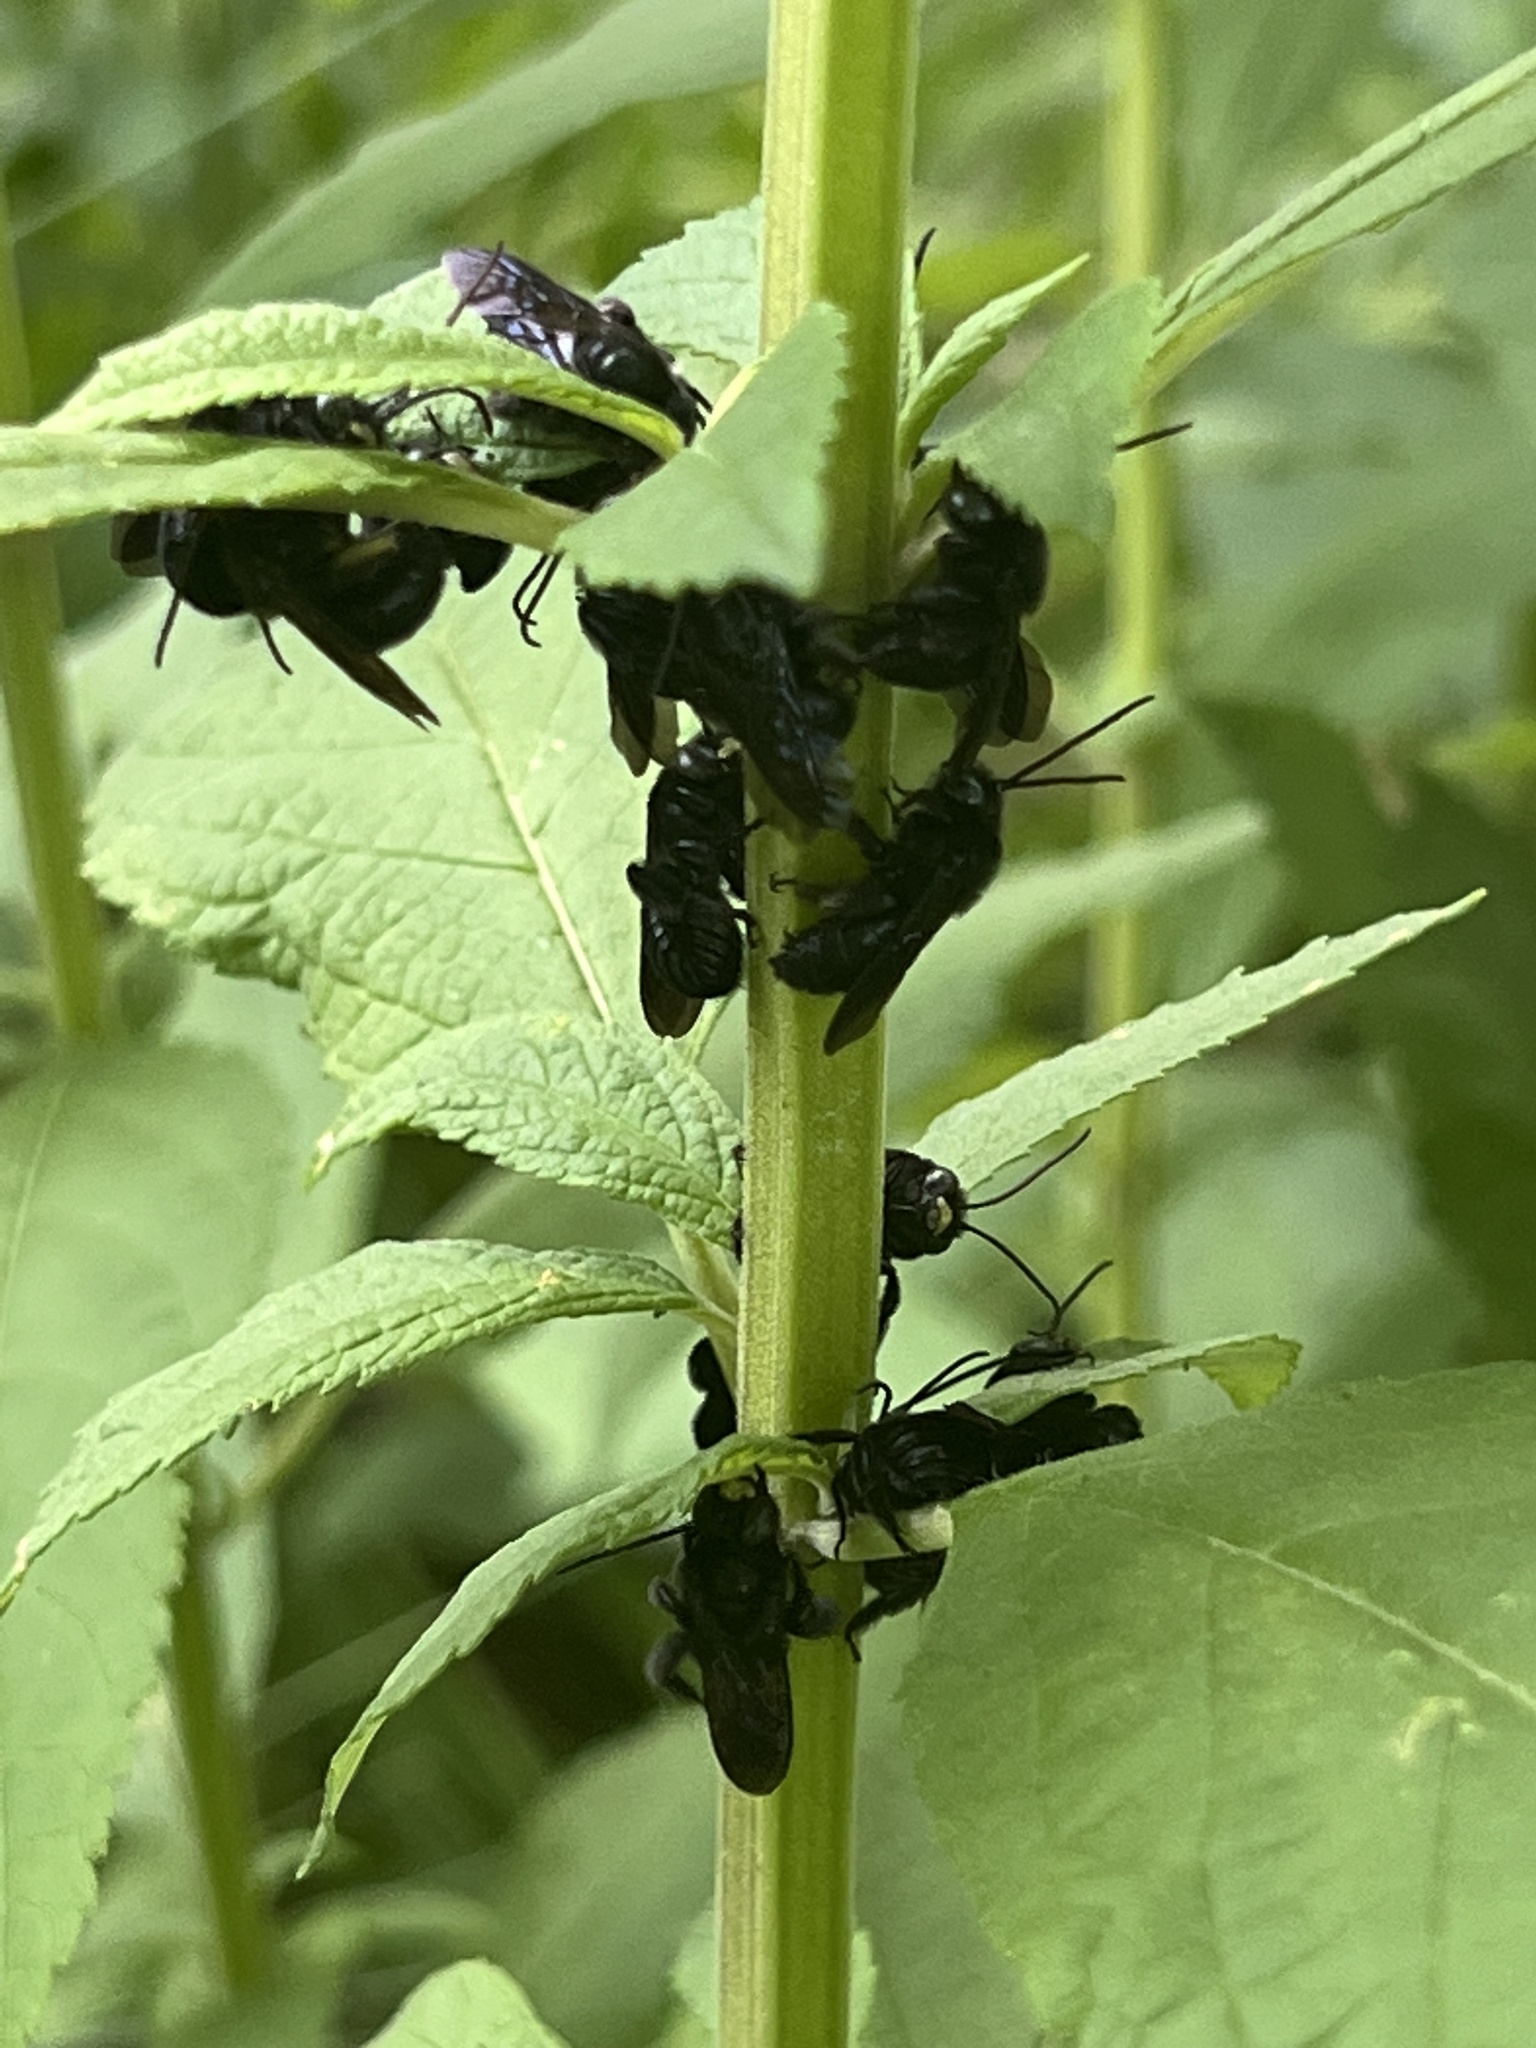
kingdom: Animalia
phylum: Arthropoda
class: Insecta
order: Hymenoptera
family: Apidae
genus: Melissodes
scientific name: Melissodes bimaculatus
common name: Two-spotted long-horned bee
